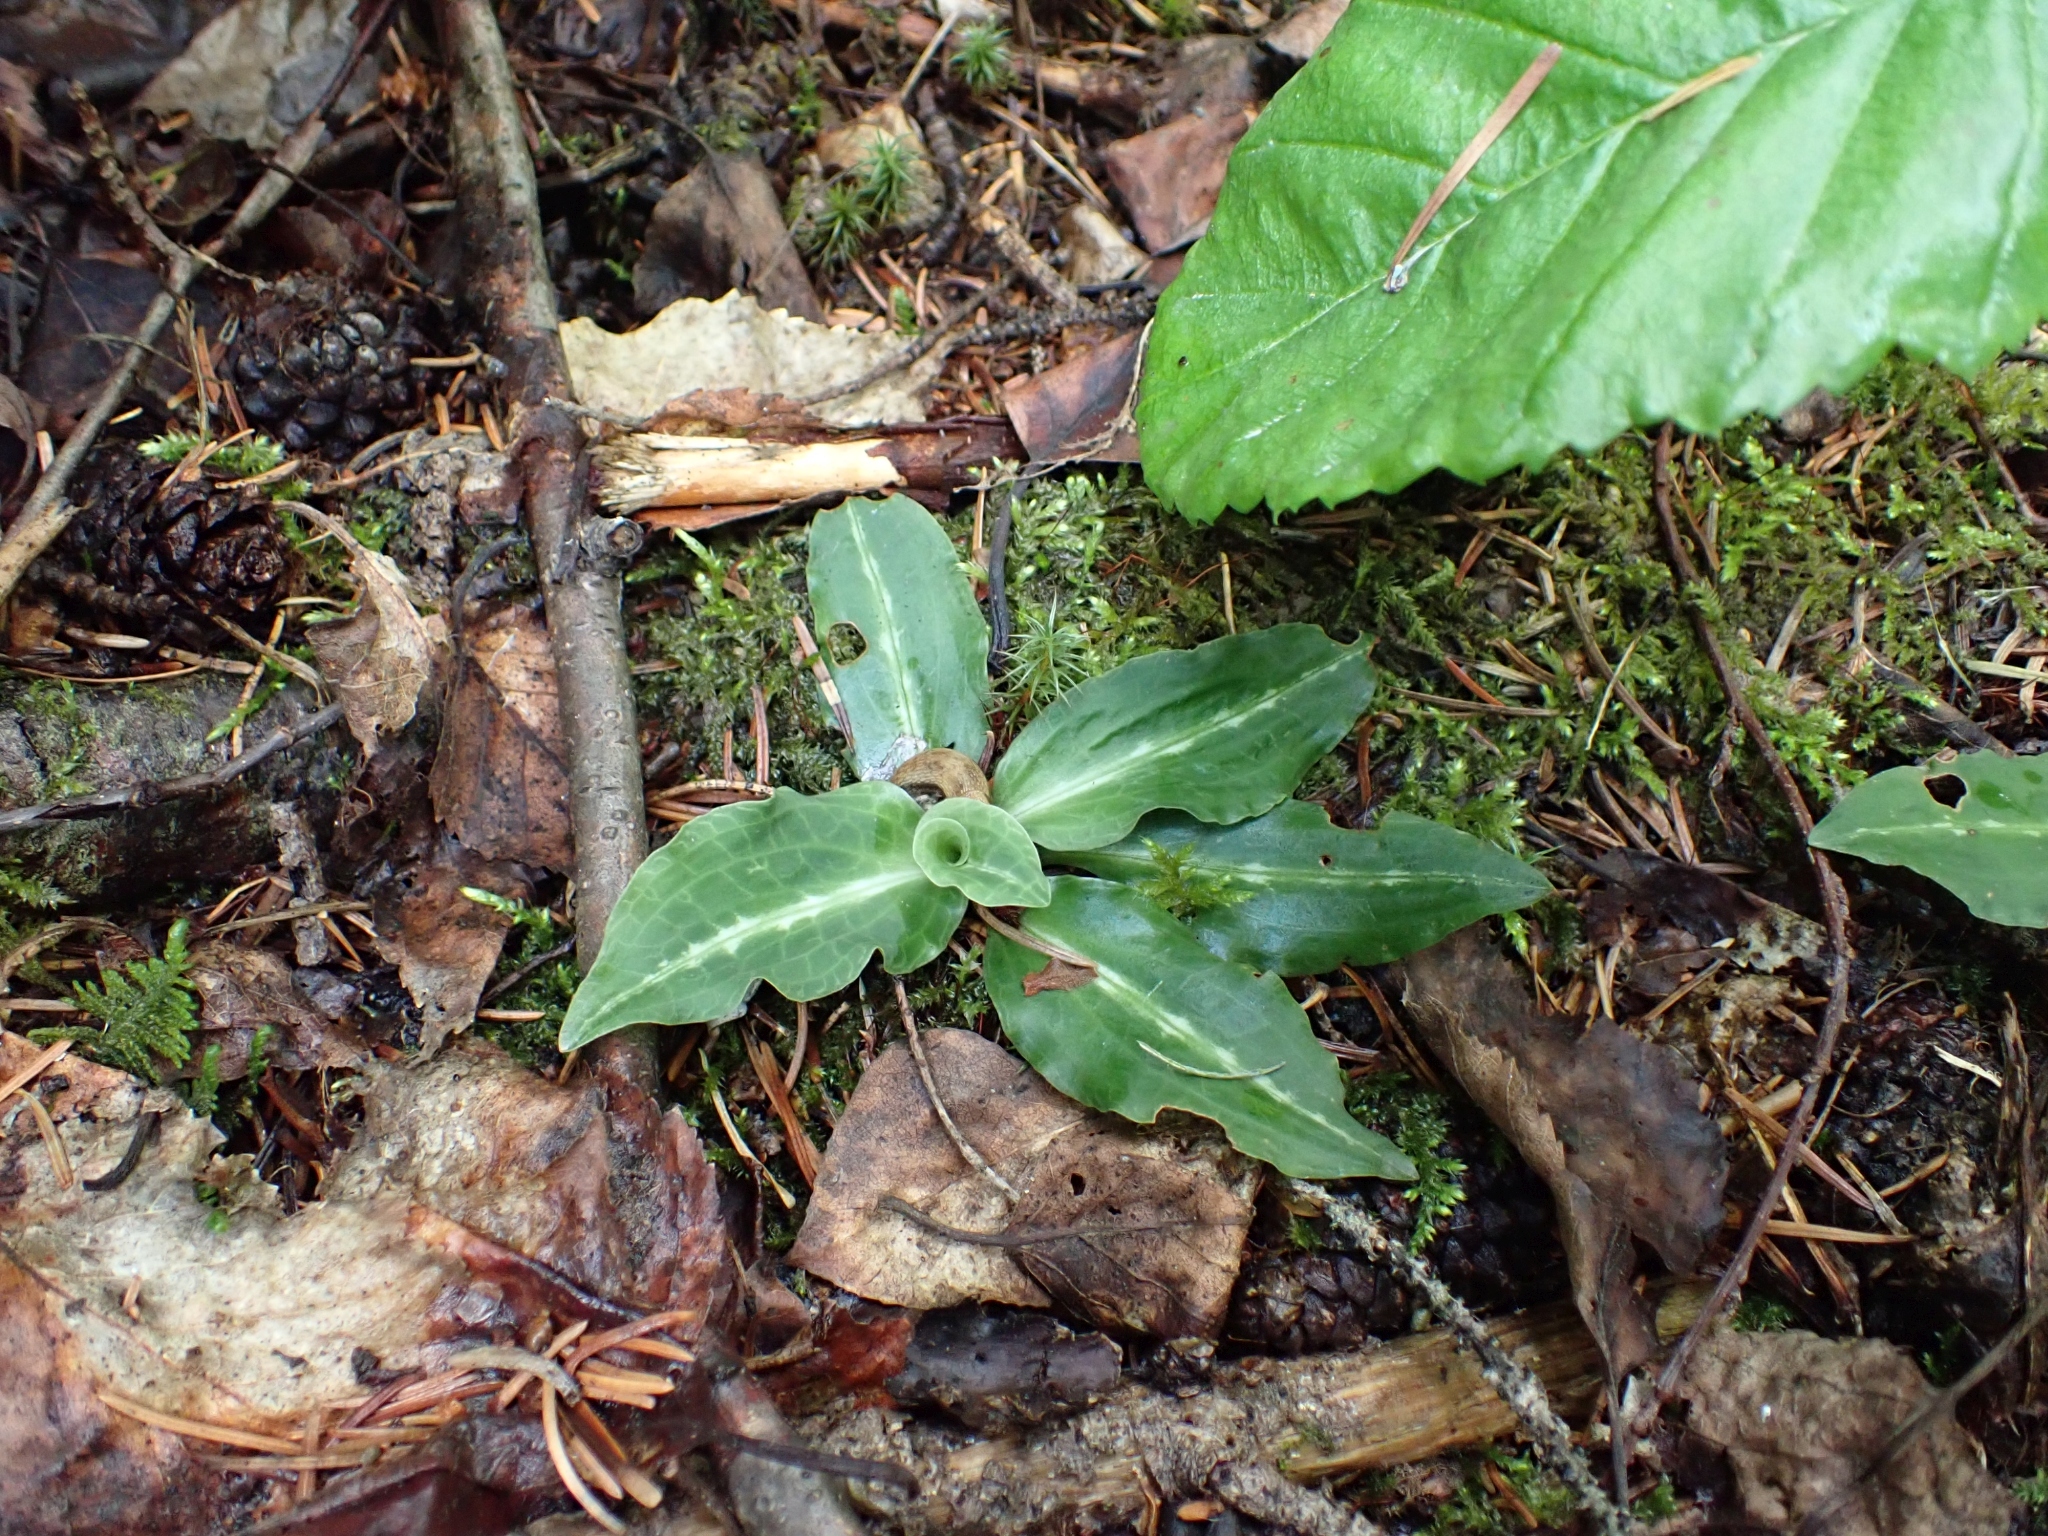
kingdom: Plantae
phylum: Tracheophyta
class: Liliopsida
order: Asparagales
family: Orchidaceae
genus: Goodyera
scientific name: Goodyera oblongifolia
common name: Giant rattlesnake-plantain
